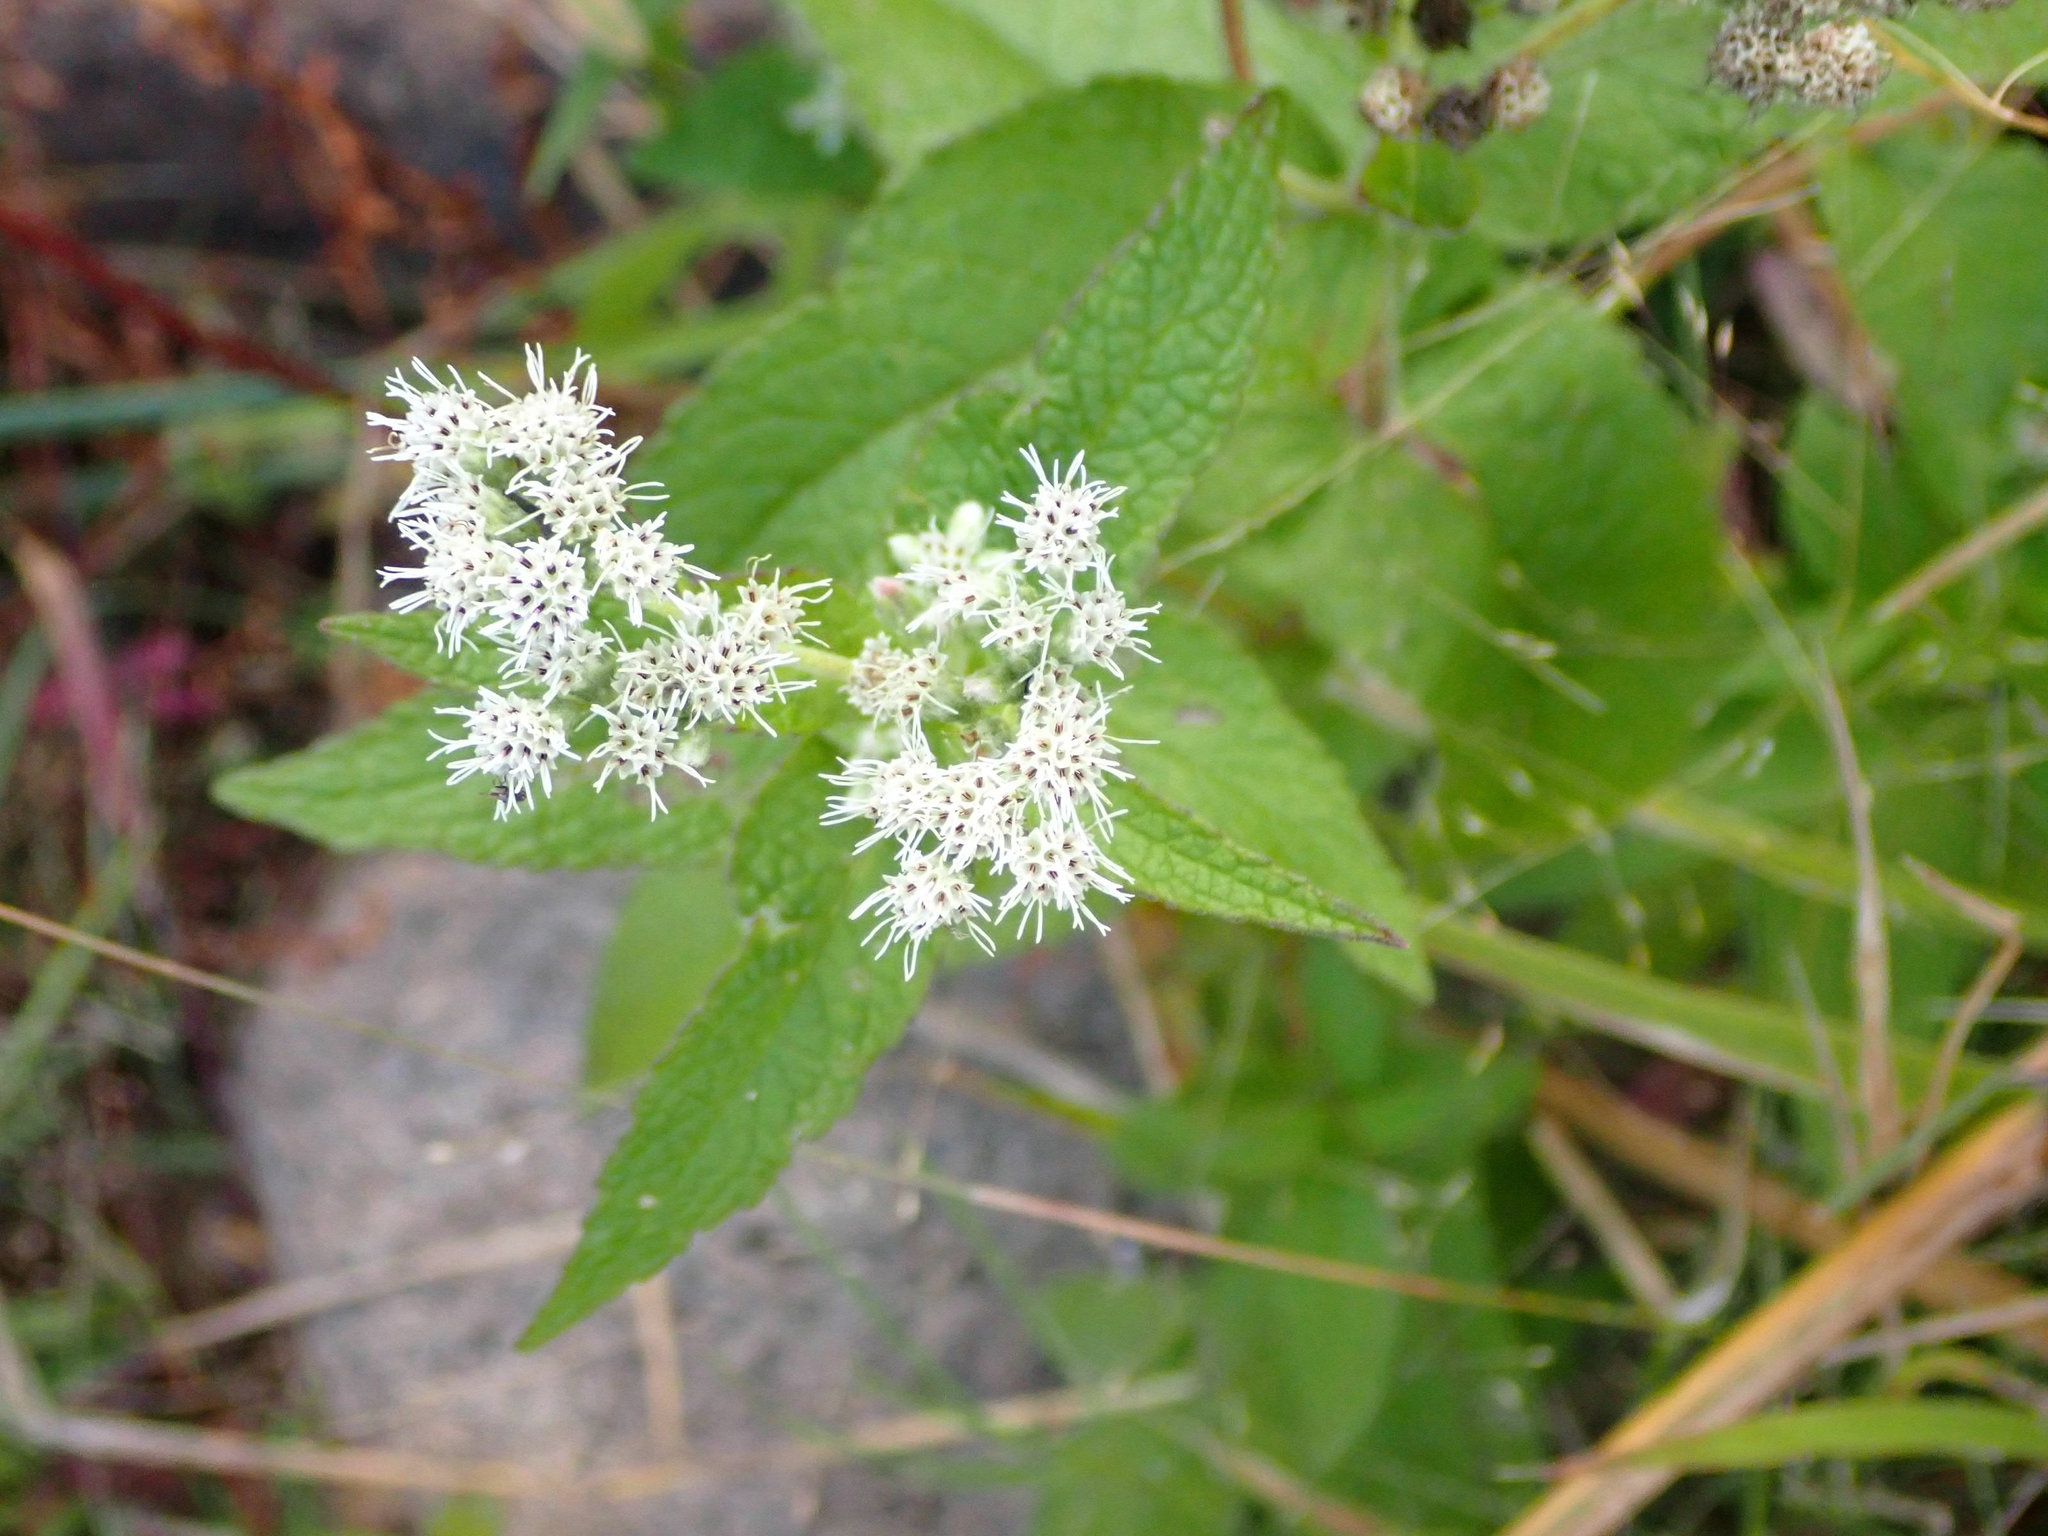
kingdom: Plantae
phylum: Tracheophyta
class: Magnoliopsida
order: Asterales
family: Asteraceae
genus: Eupatorium
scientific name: Eupatorium perfoliatum
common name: Boneset
